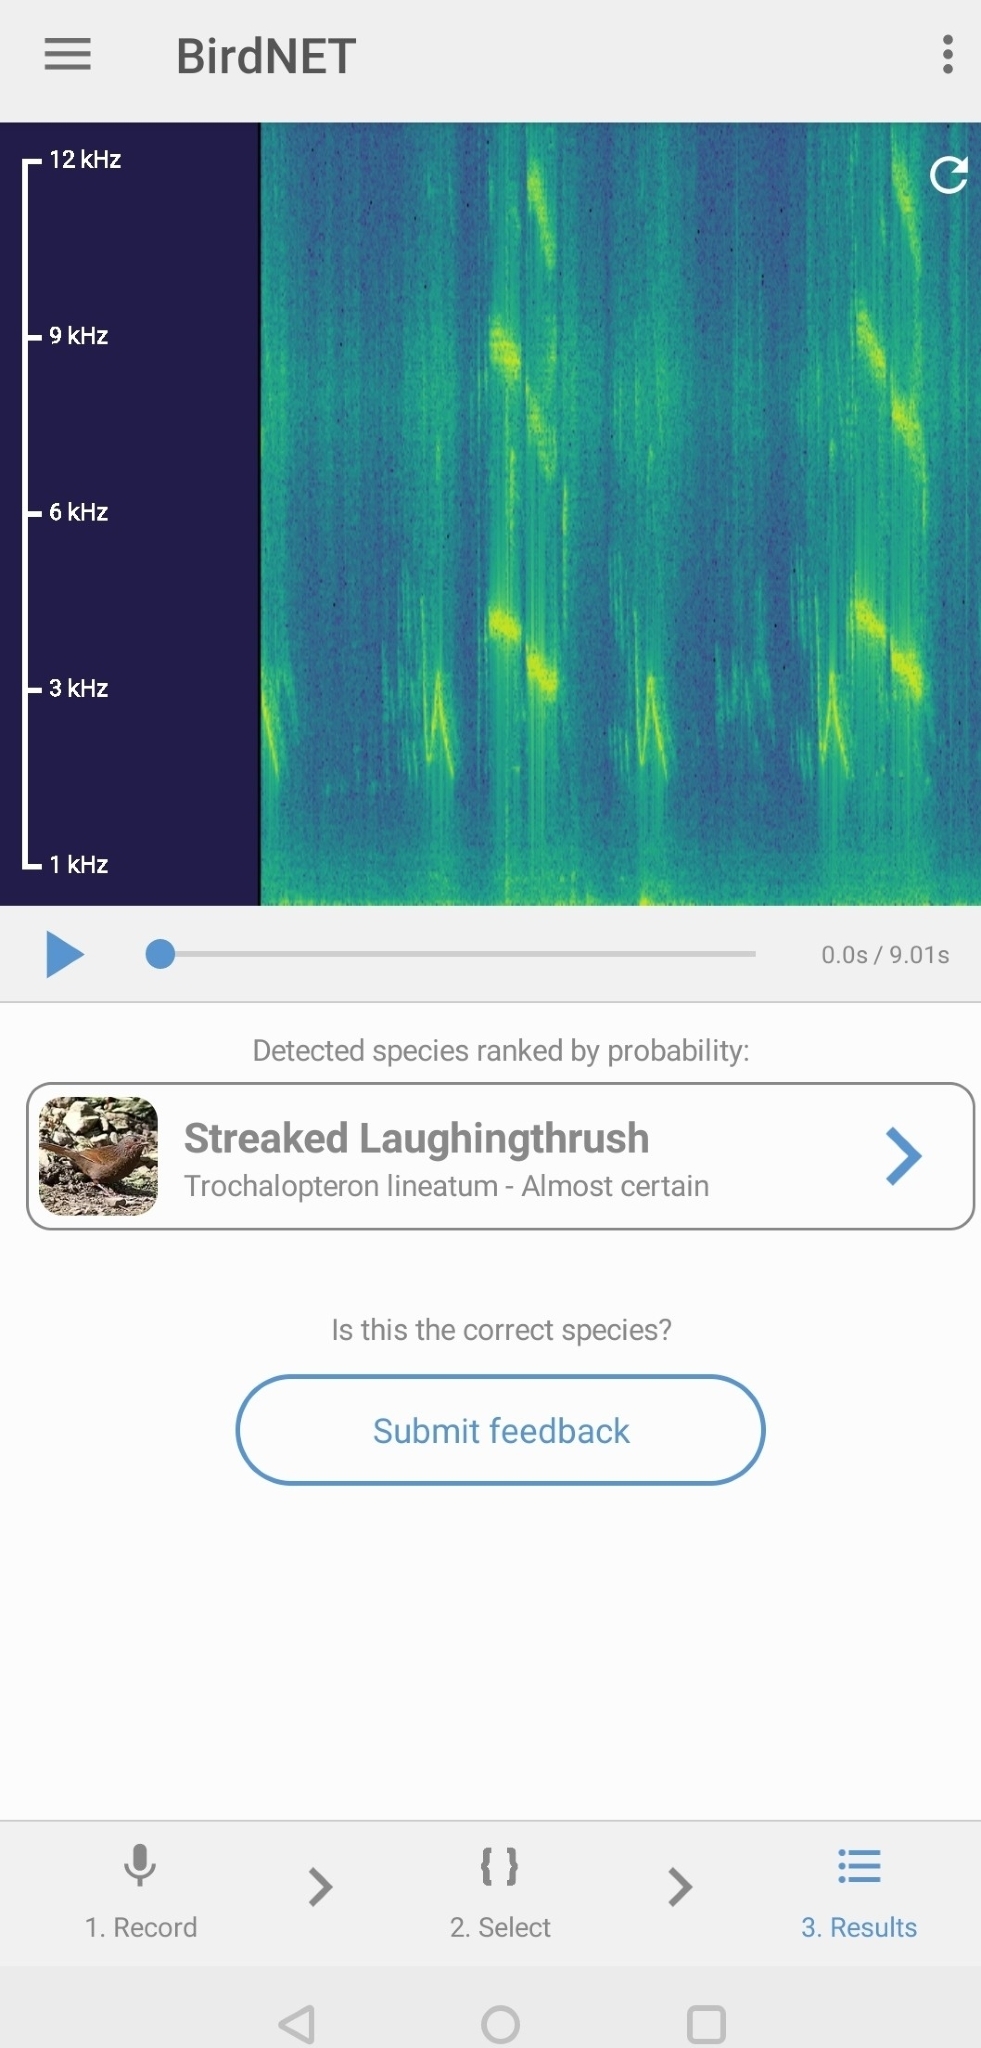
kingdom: Animalia
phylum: Chordata
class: Aves
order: Passeriformes
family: Leiothrichidae
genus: Trochalopteron
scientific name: Trochalopteron lineatum
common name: Streaked laughingthrush
